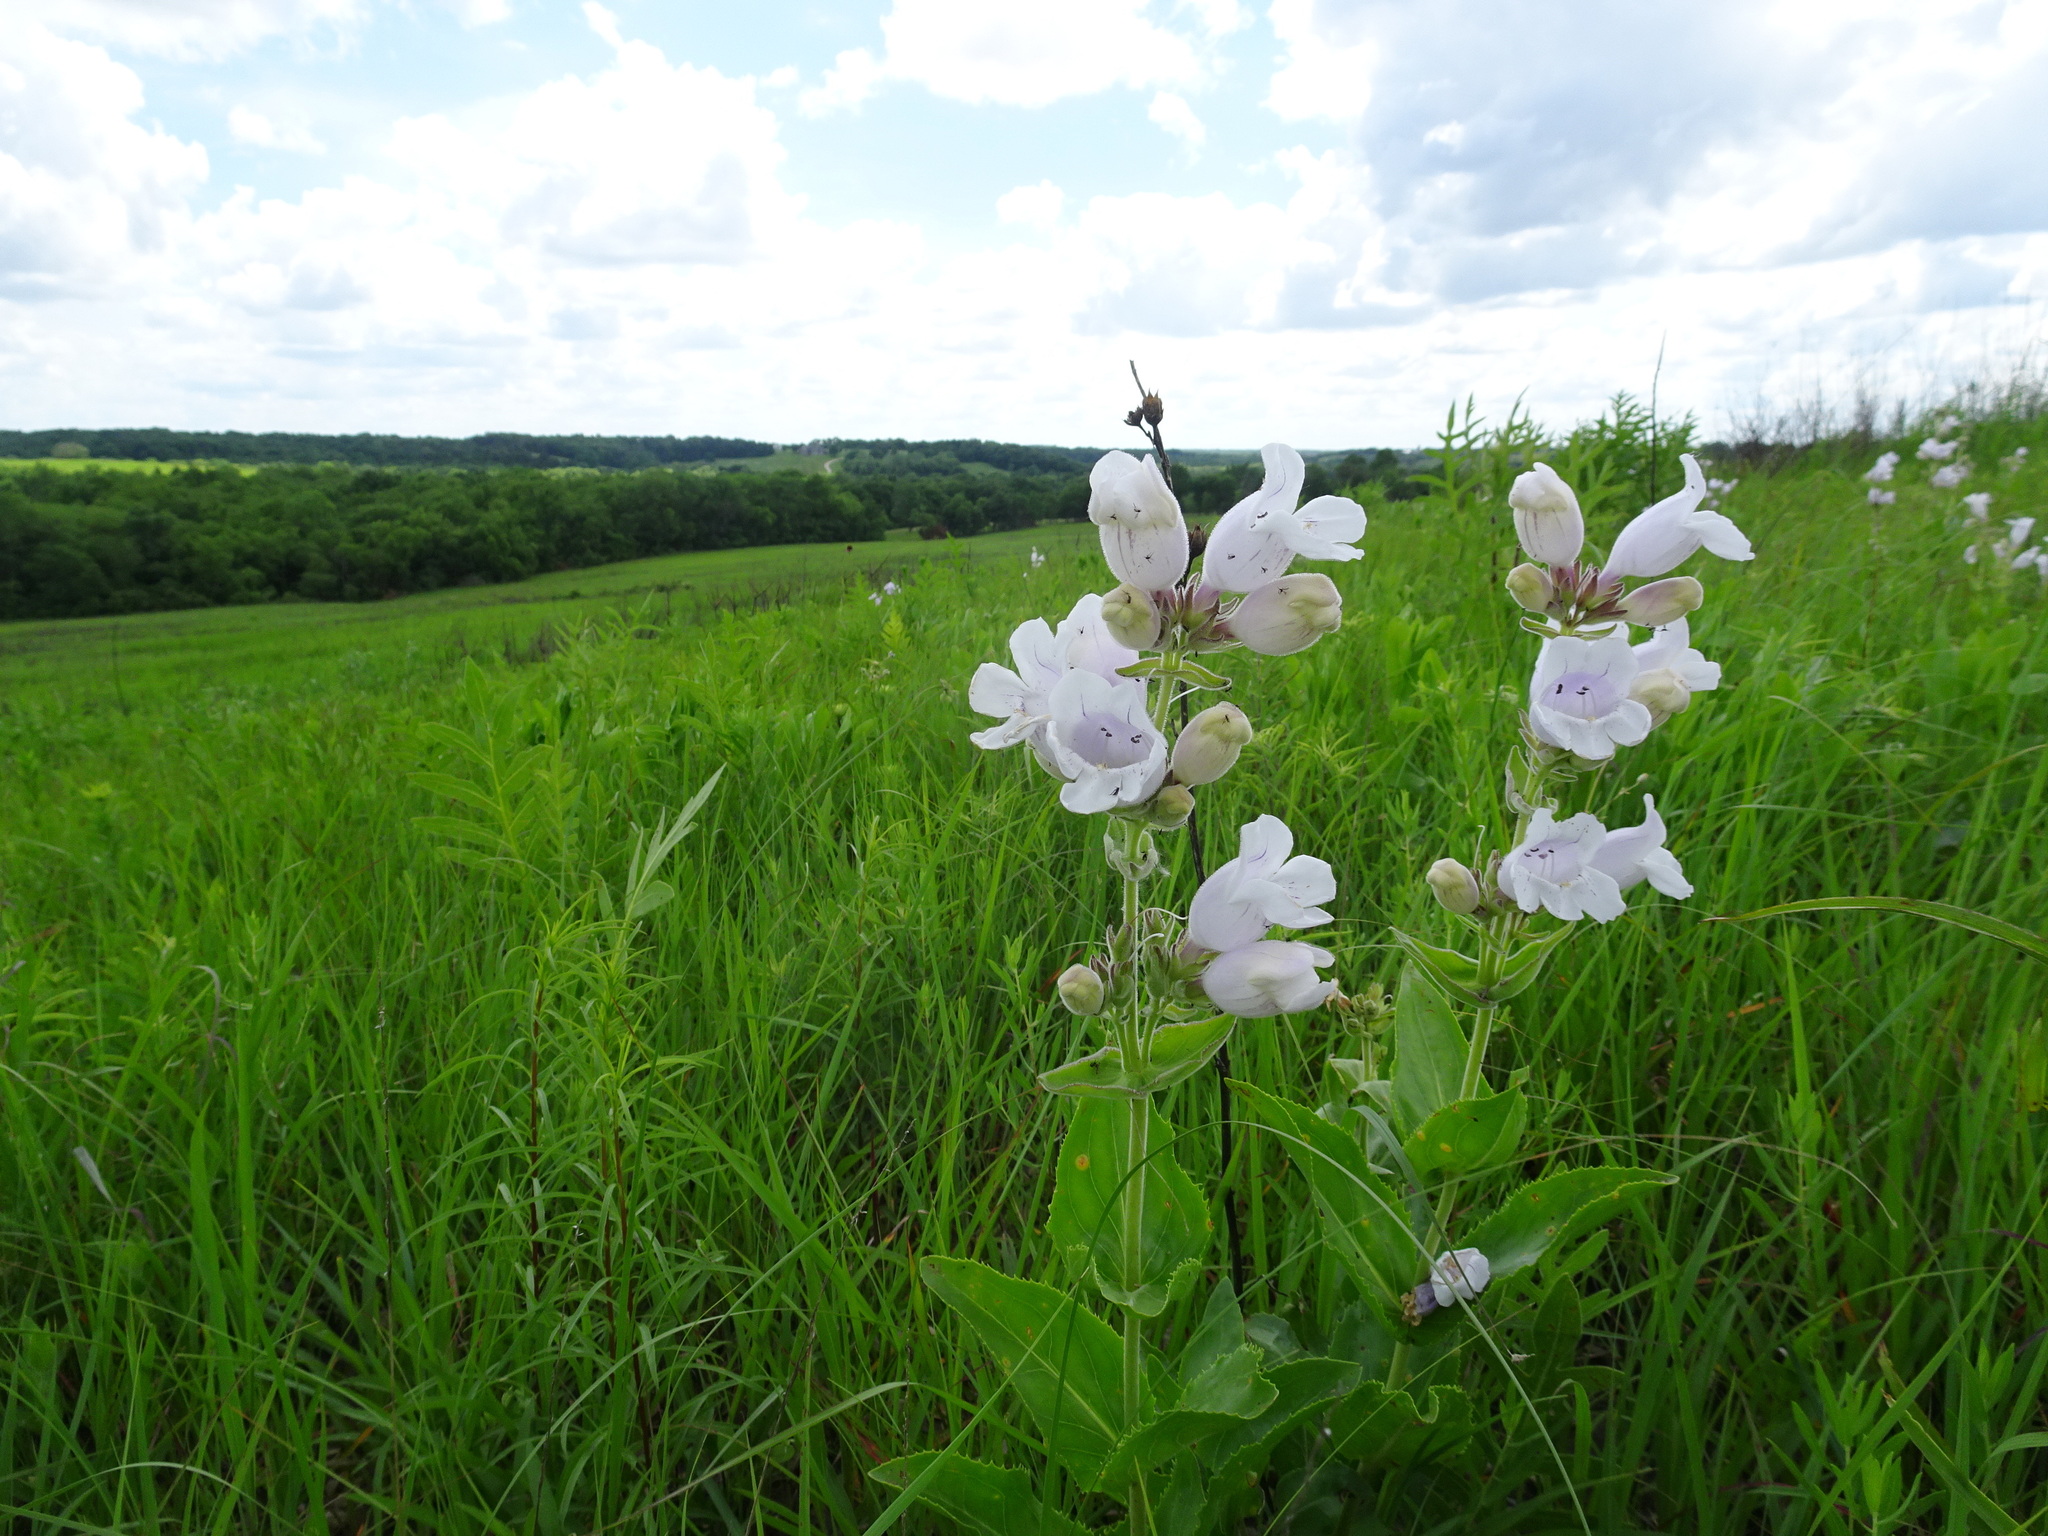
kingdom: Plantae
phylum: Tracheophyta
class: Magnoliopsida
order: Lamiales
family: Plantaginaceae
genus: Penstemon
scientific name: Penstemon cobaea
